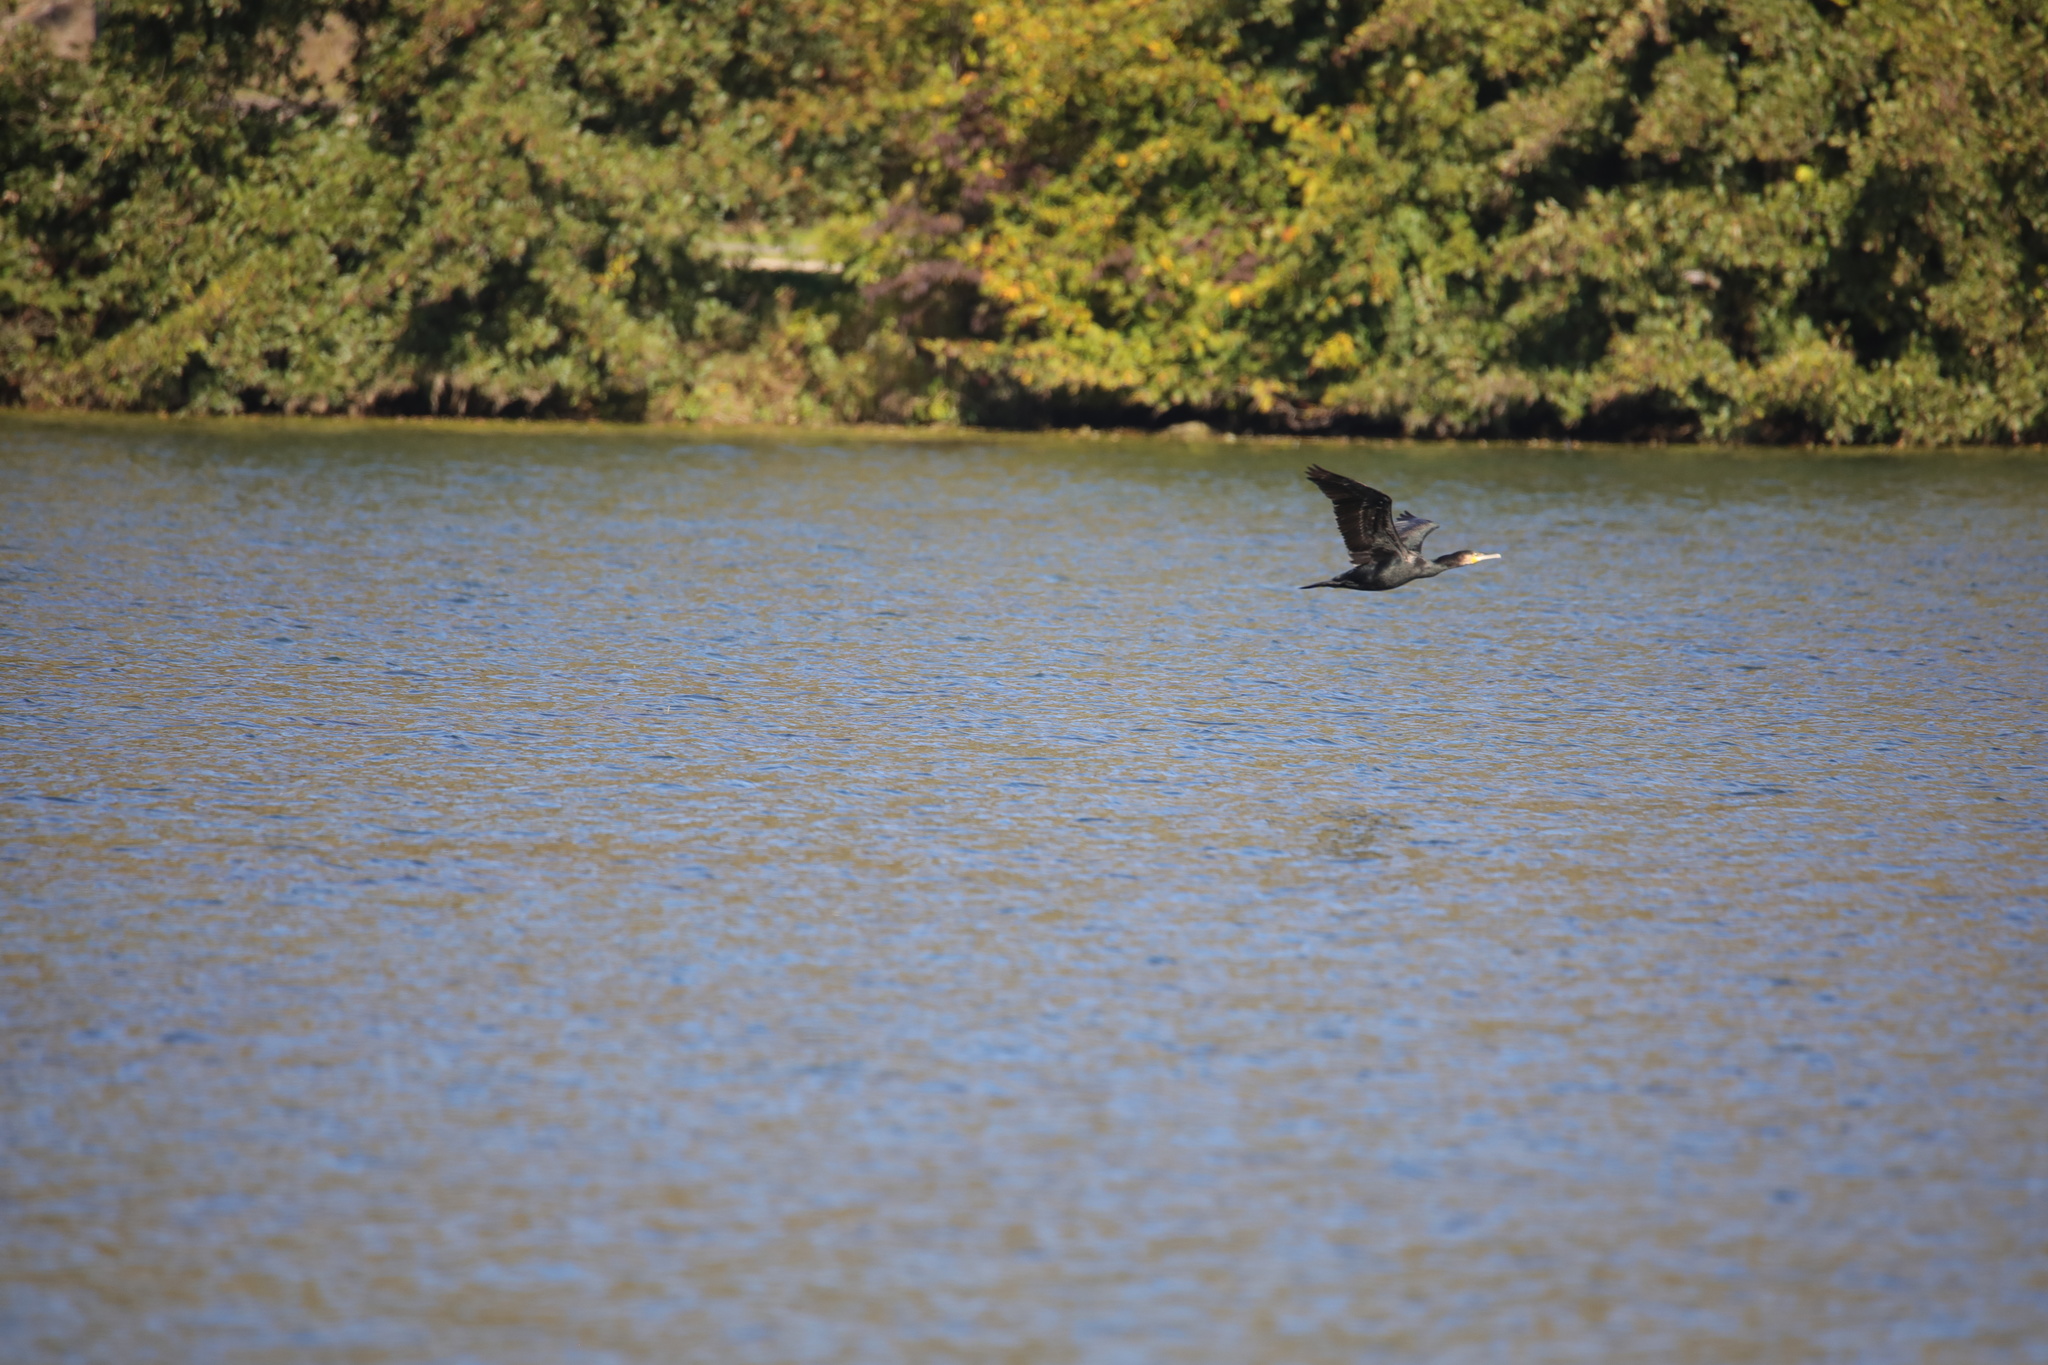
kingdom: Animalia
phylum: Chordata
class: Aves
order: Suliformes
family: Phalacrocoracidae
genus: Phalacrocorax
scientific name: Phalacrocorax carbo
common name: Great cormorant
